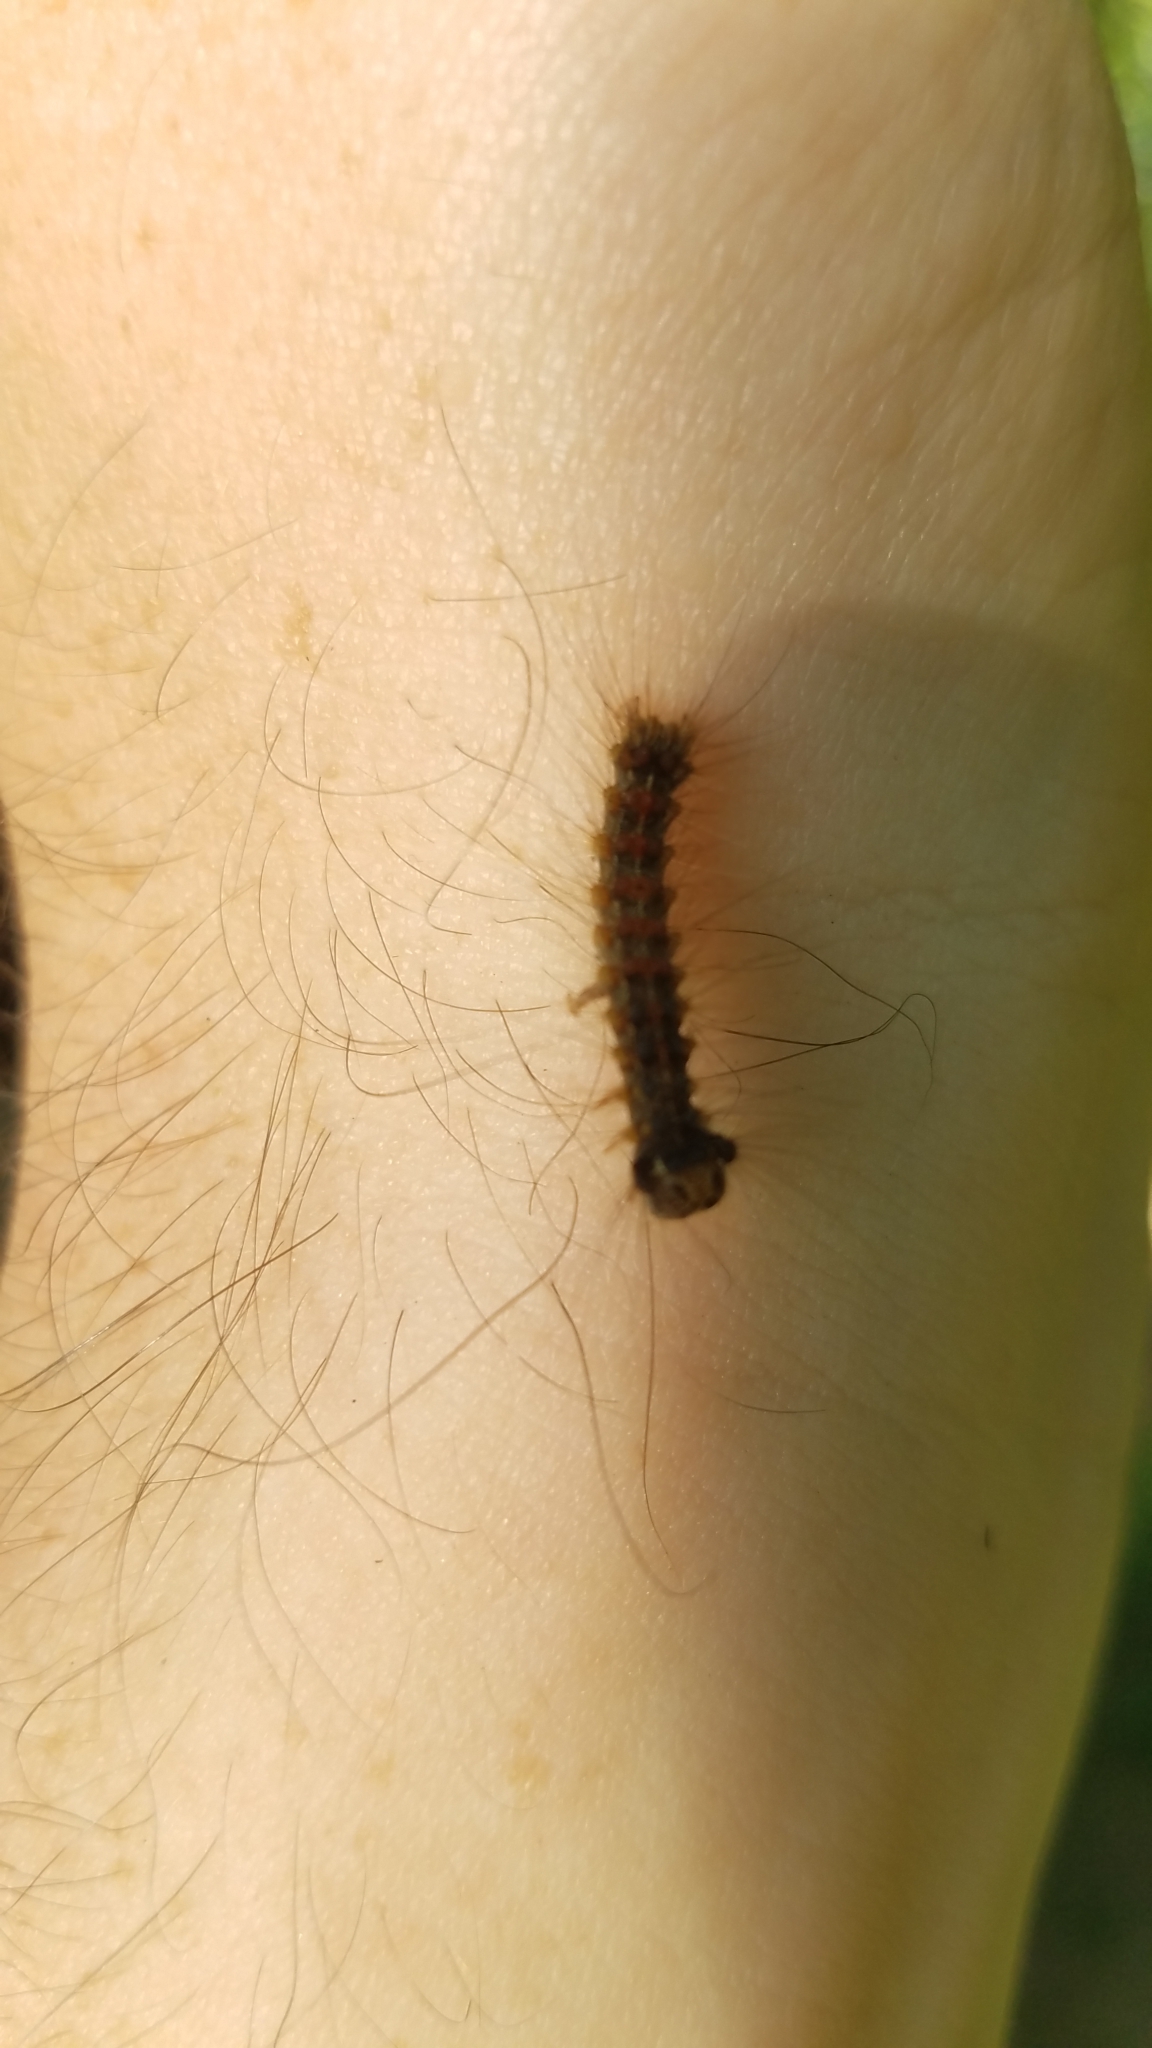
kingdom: Animalia
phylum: Arthropoda
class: Insecta
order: Lepidoptera
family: Erebidae
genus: Lymantria
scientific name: Lymantria dispar
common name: Gypsy moth
